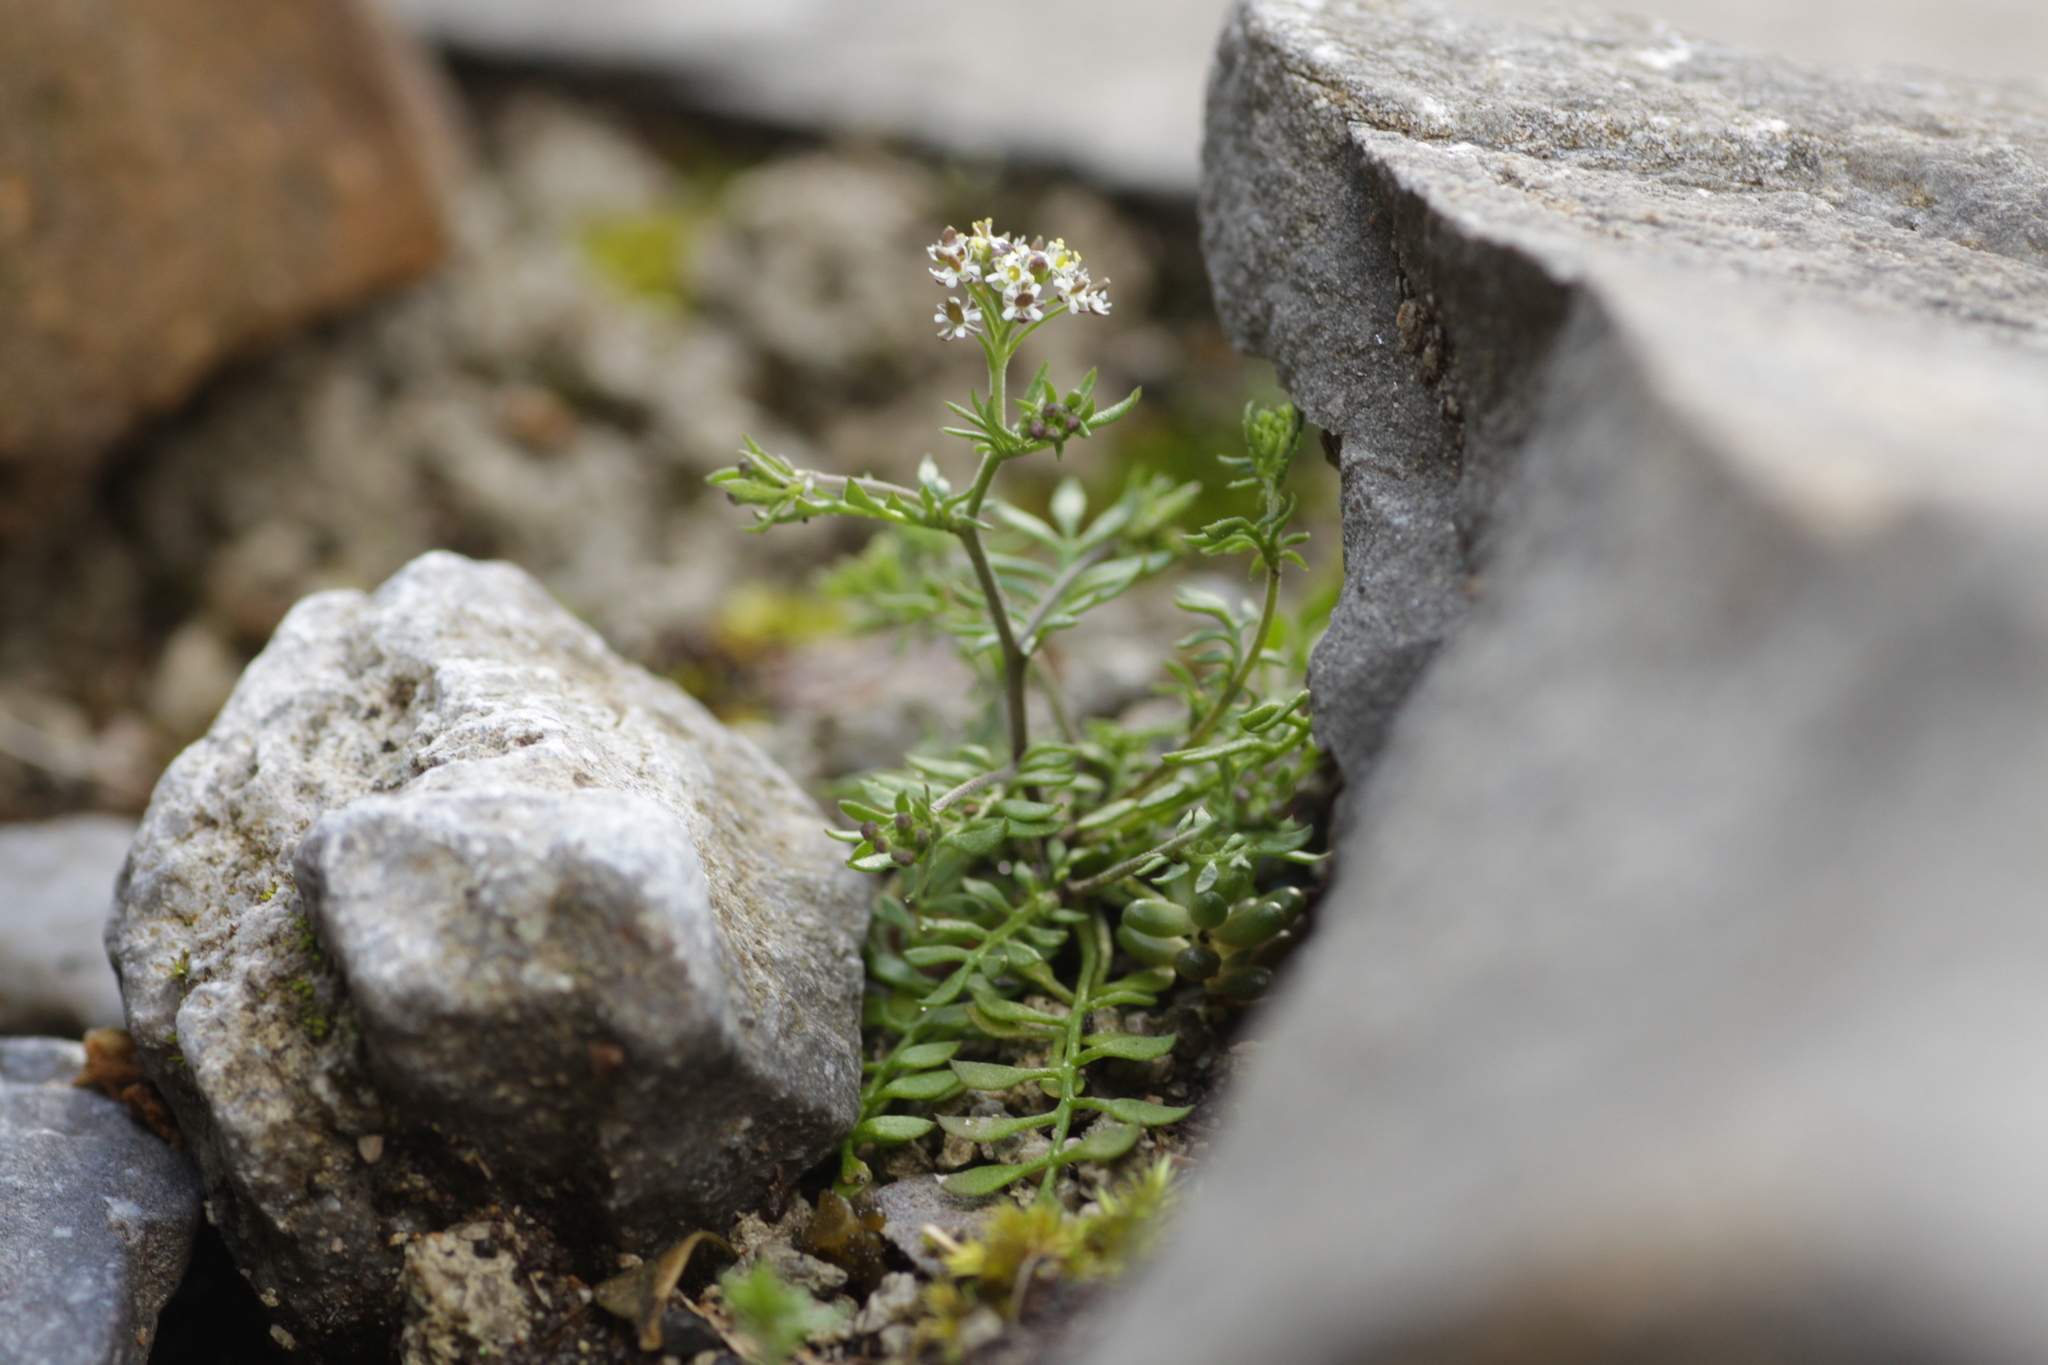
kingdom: Plantae
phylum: Tracheophyta
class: Magnoliopsida
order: Brassicales
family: Brassicaceae
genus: Hornungia
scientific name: Hornungia petraea
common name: Hutchinsia
